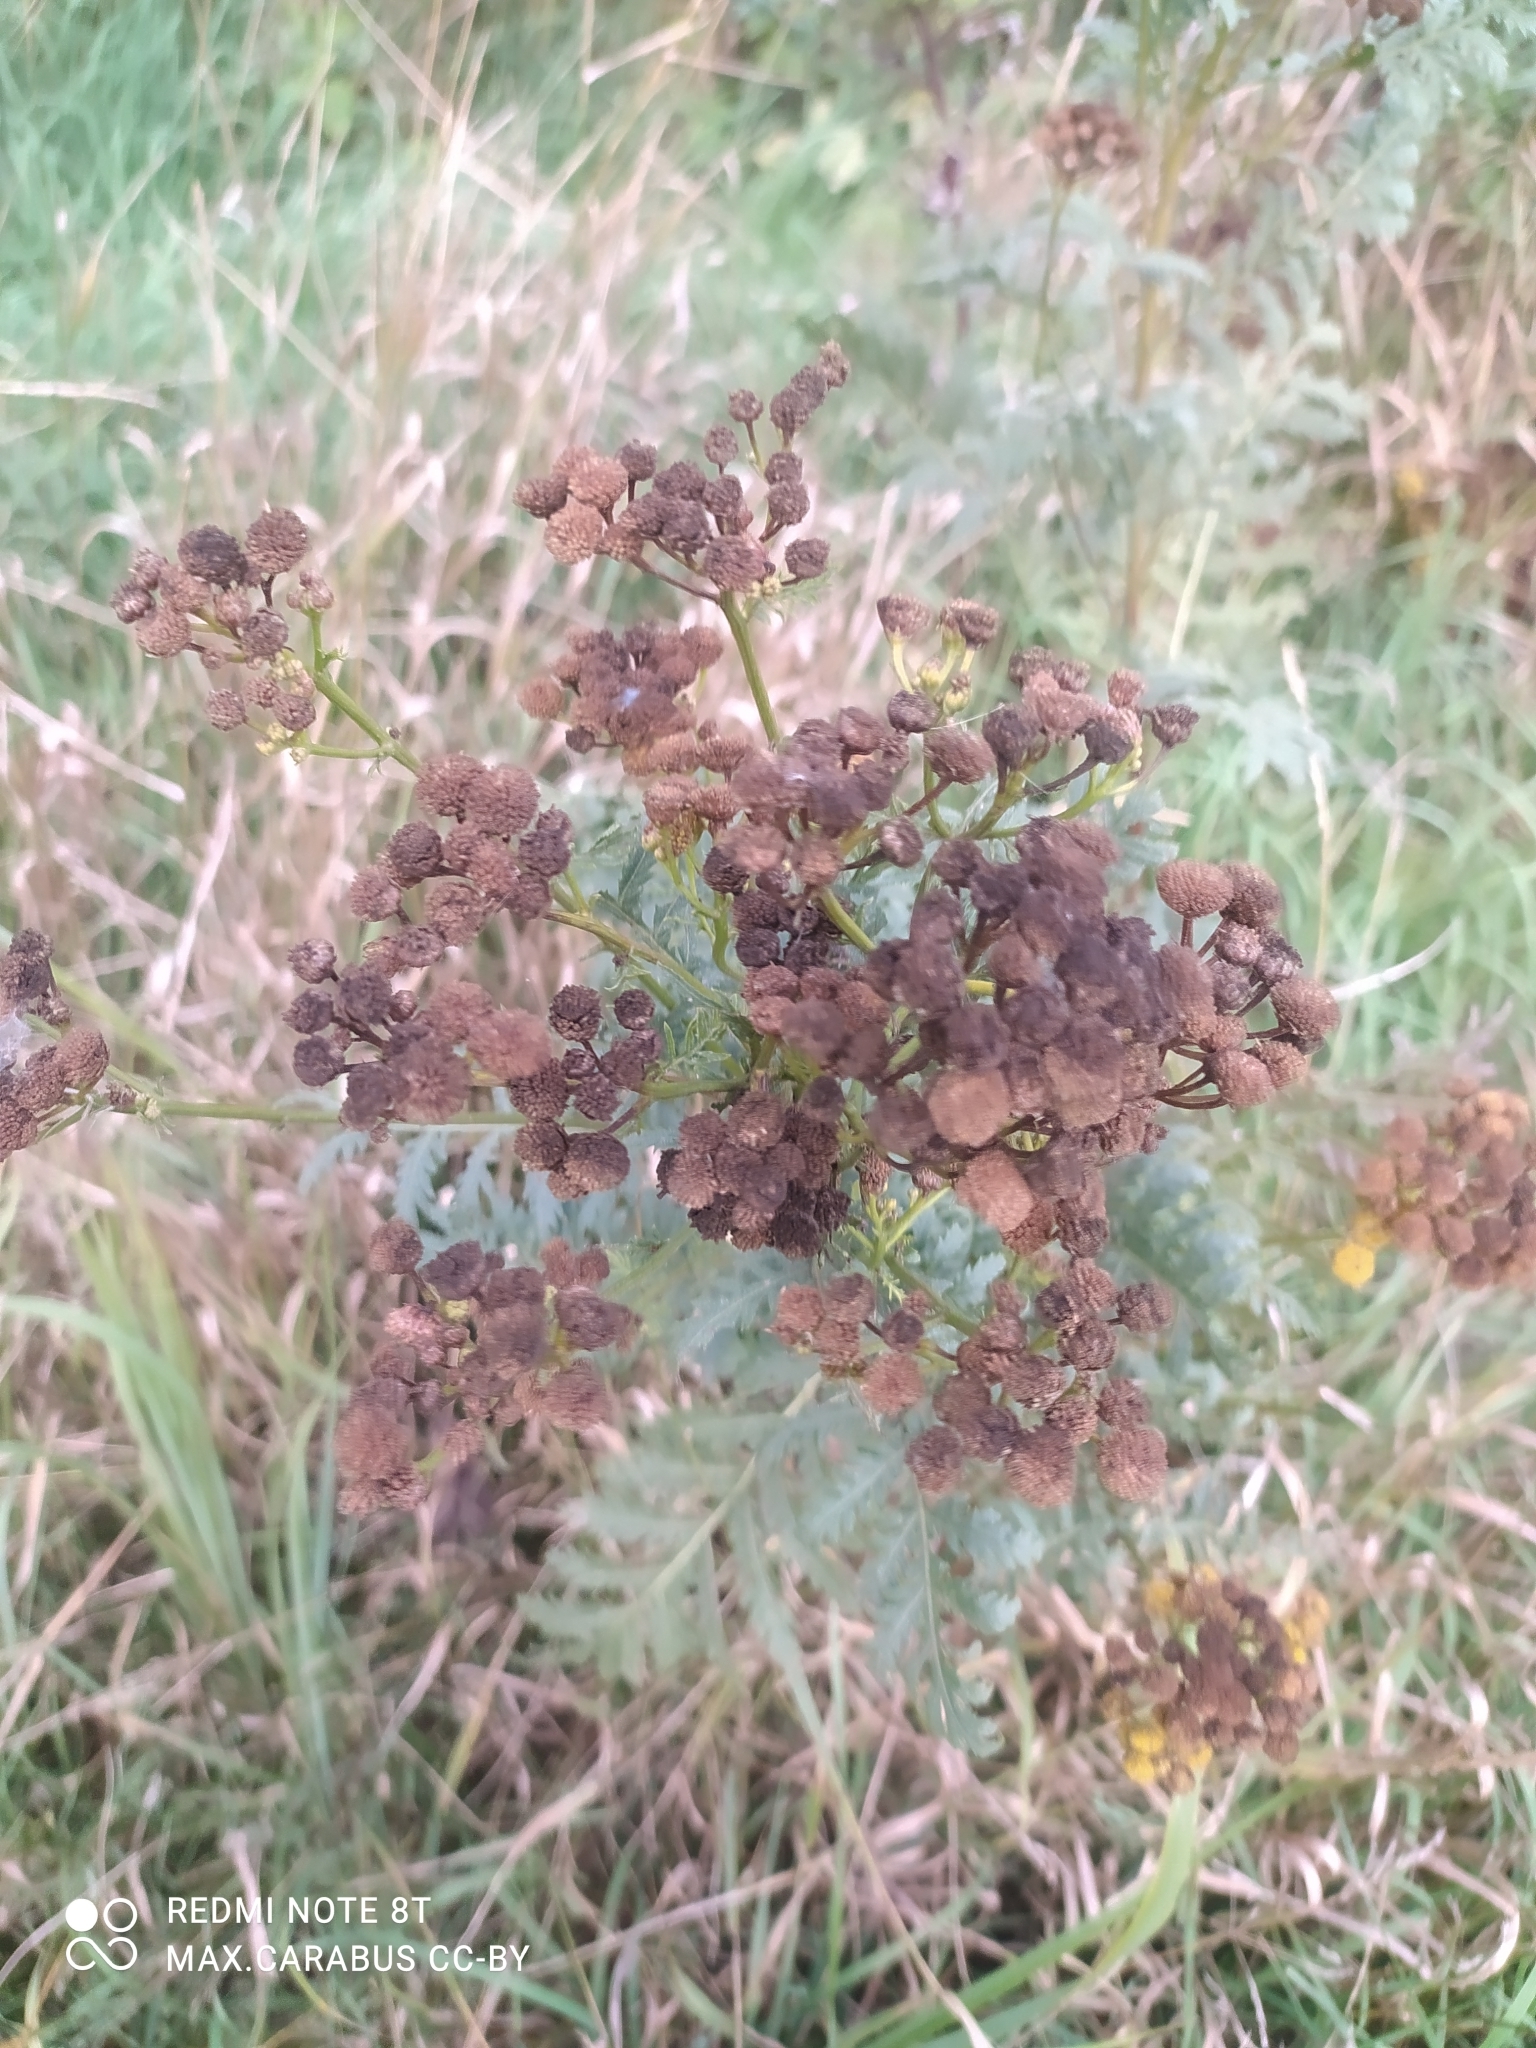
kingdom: Plantae
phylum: Tracheophyta
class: Magnoliopsida
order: Asterales
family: Asteraceae
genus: Tanacetum
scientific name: Tanacetum vulgare
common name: Common tansy
